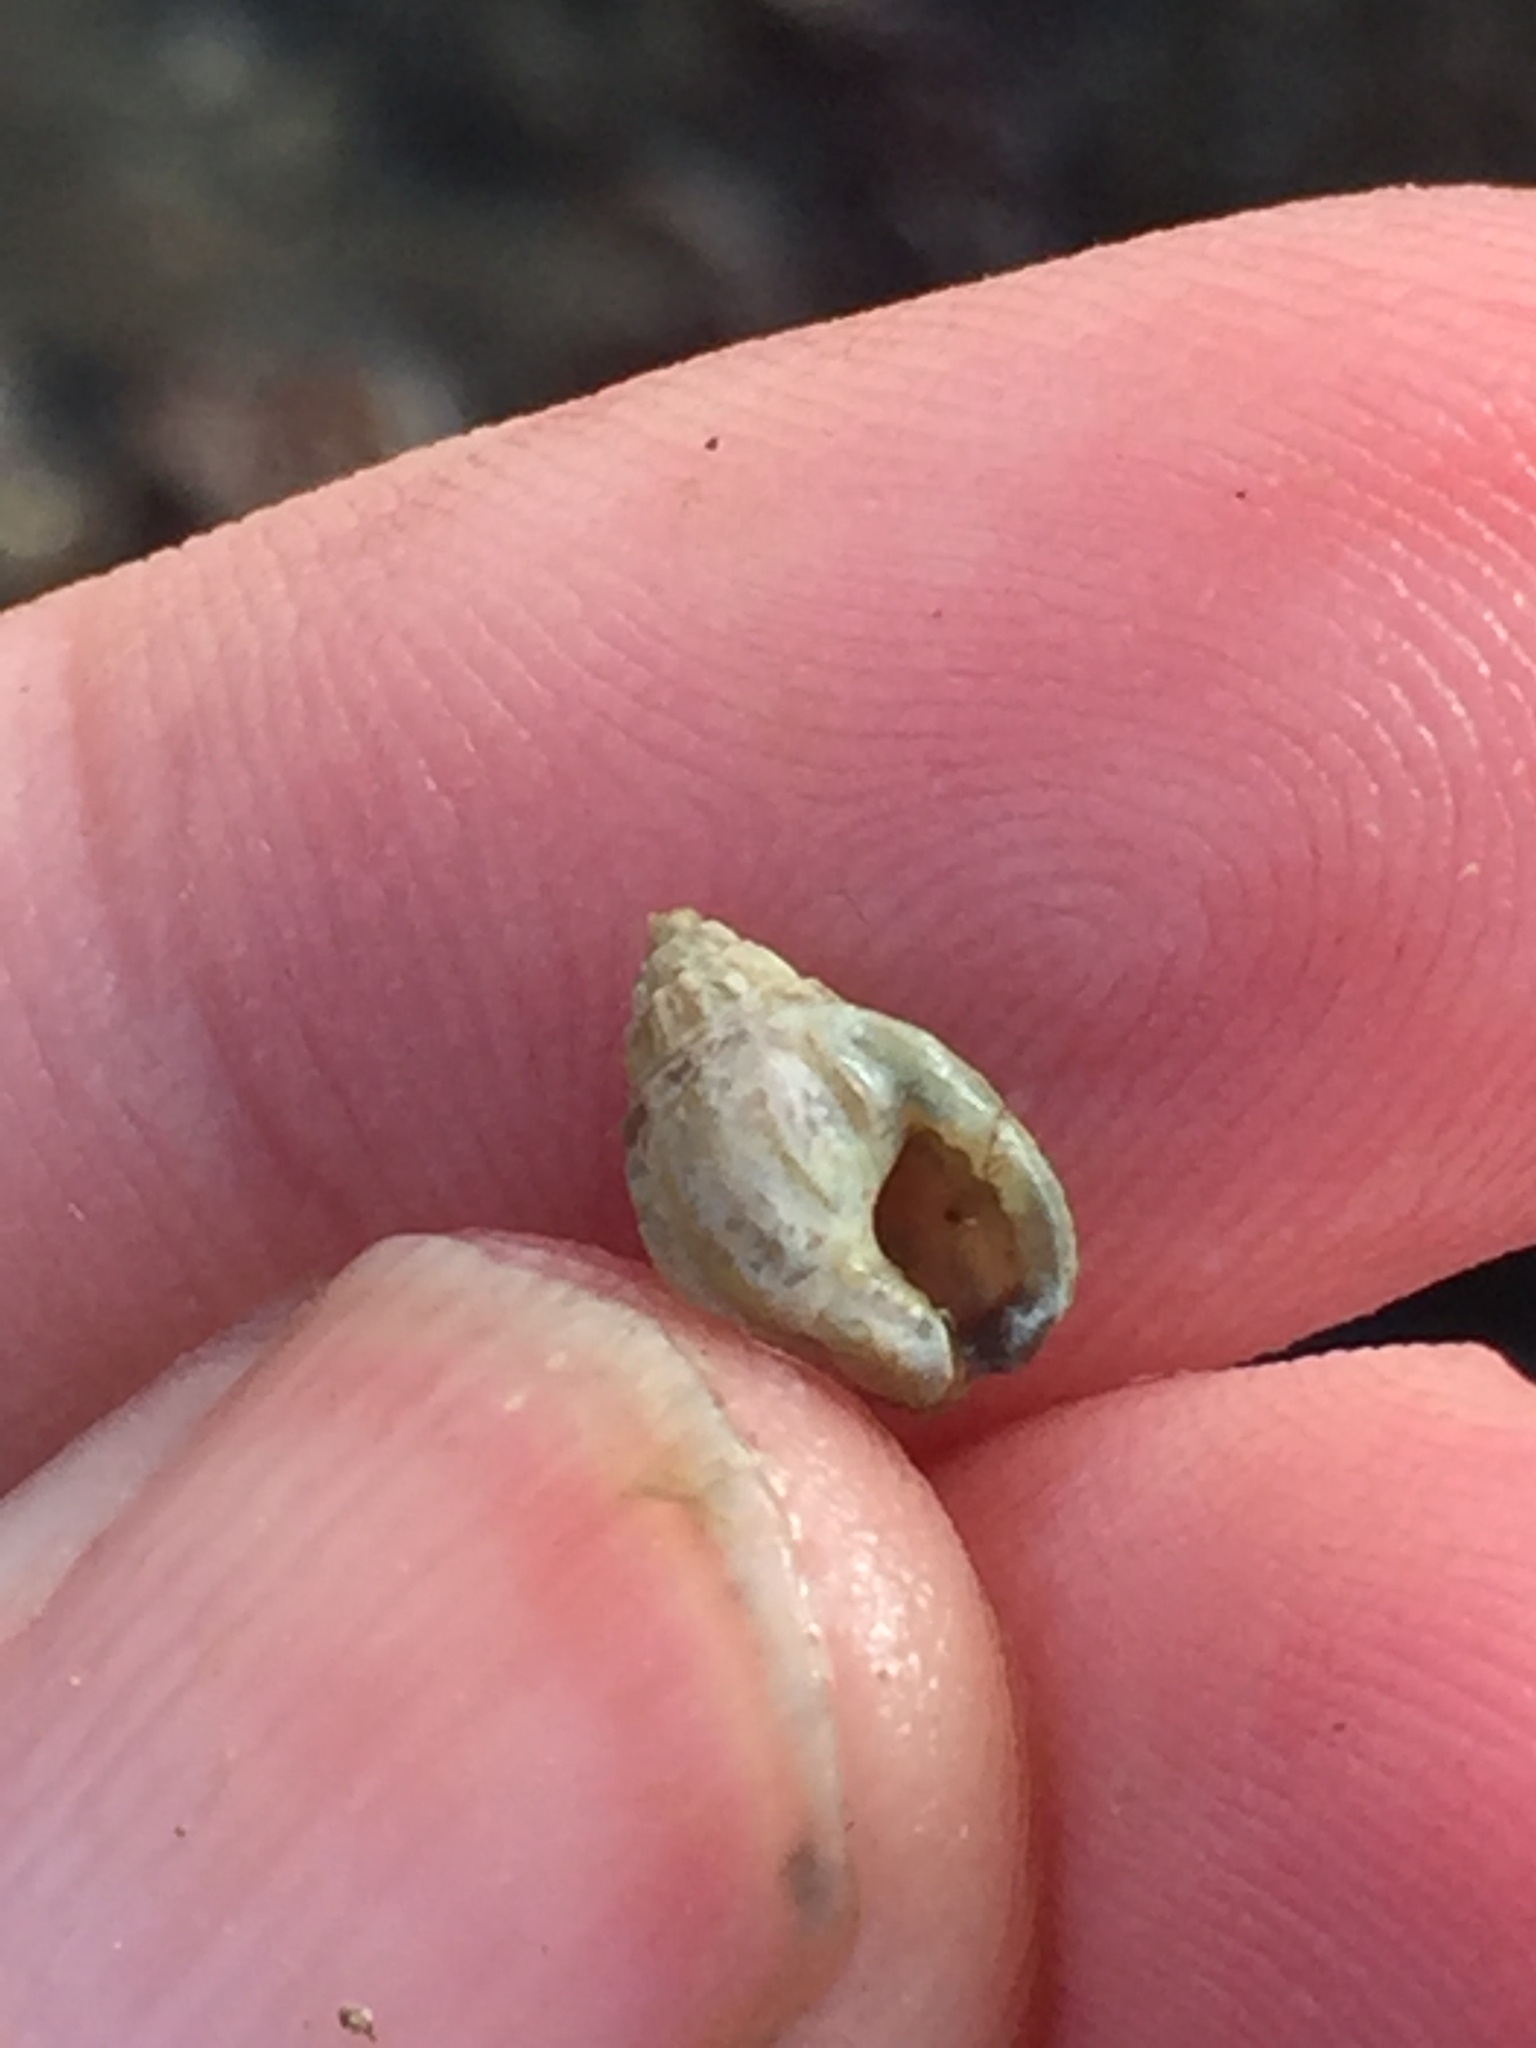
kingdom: Animalia
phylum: Mollusca
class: Gastropoda
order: Neogastropoda
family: Nassariidae
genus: Tritia
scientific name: Tritia burchardi
